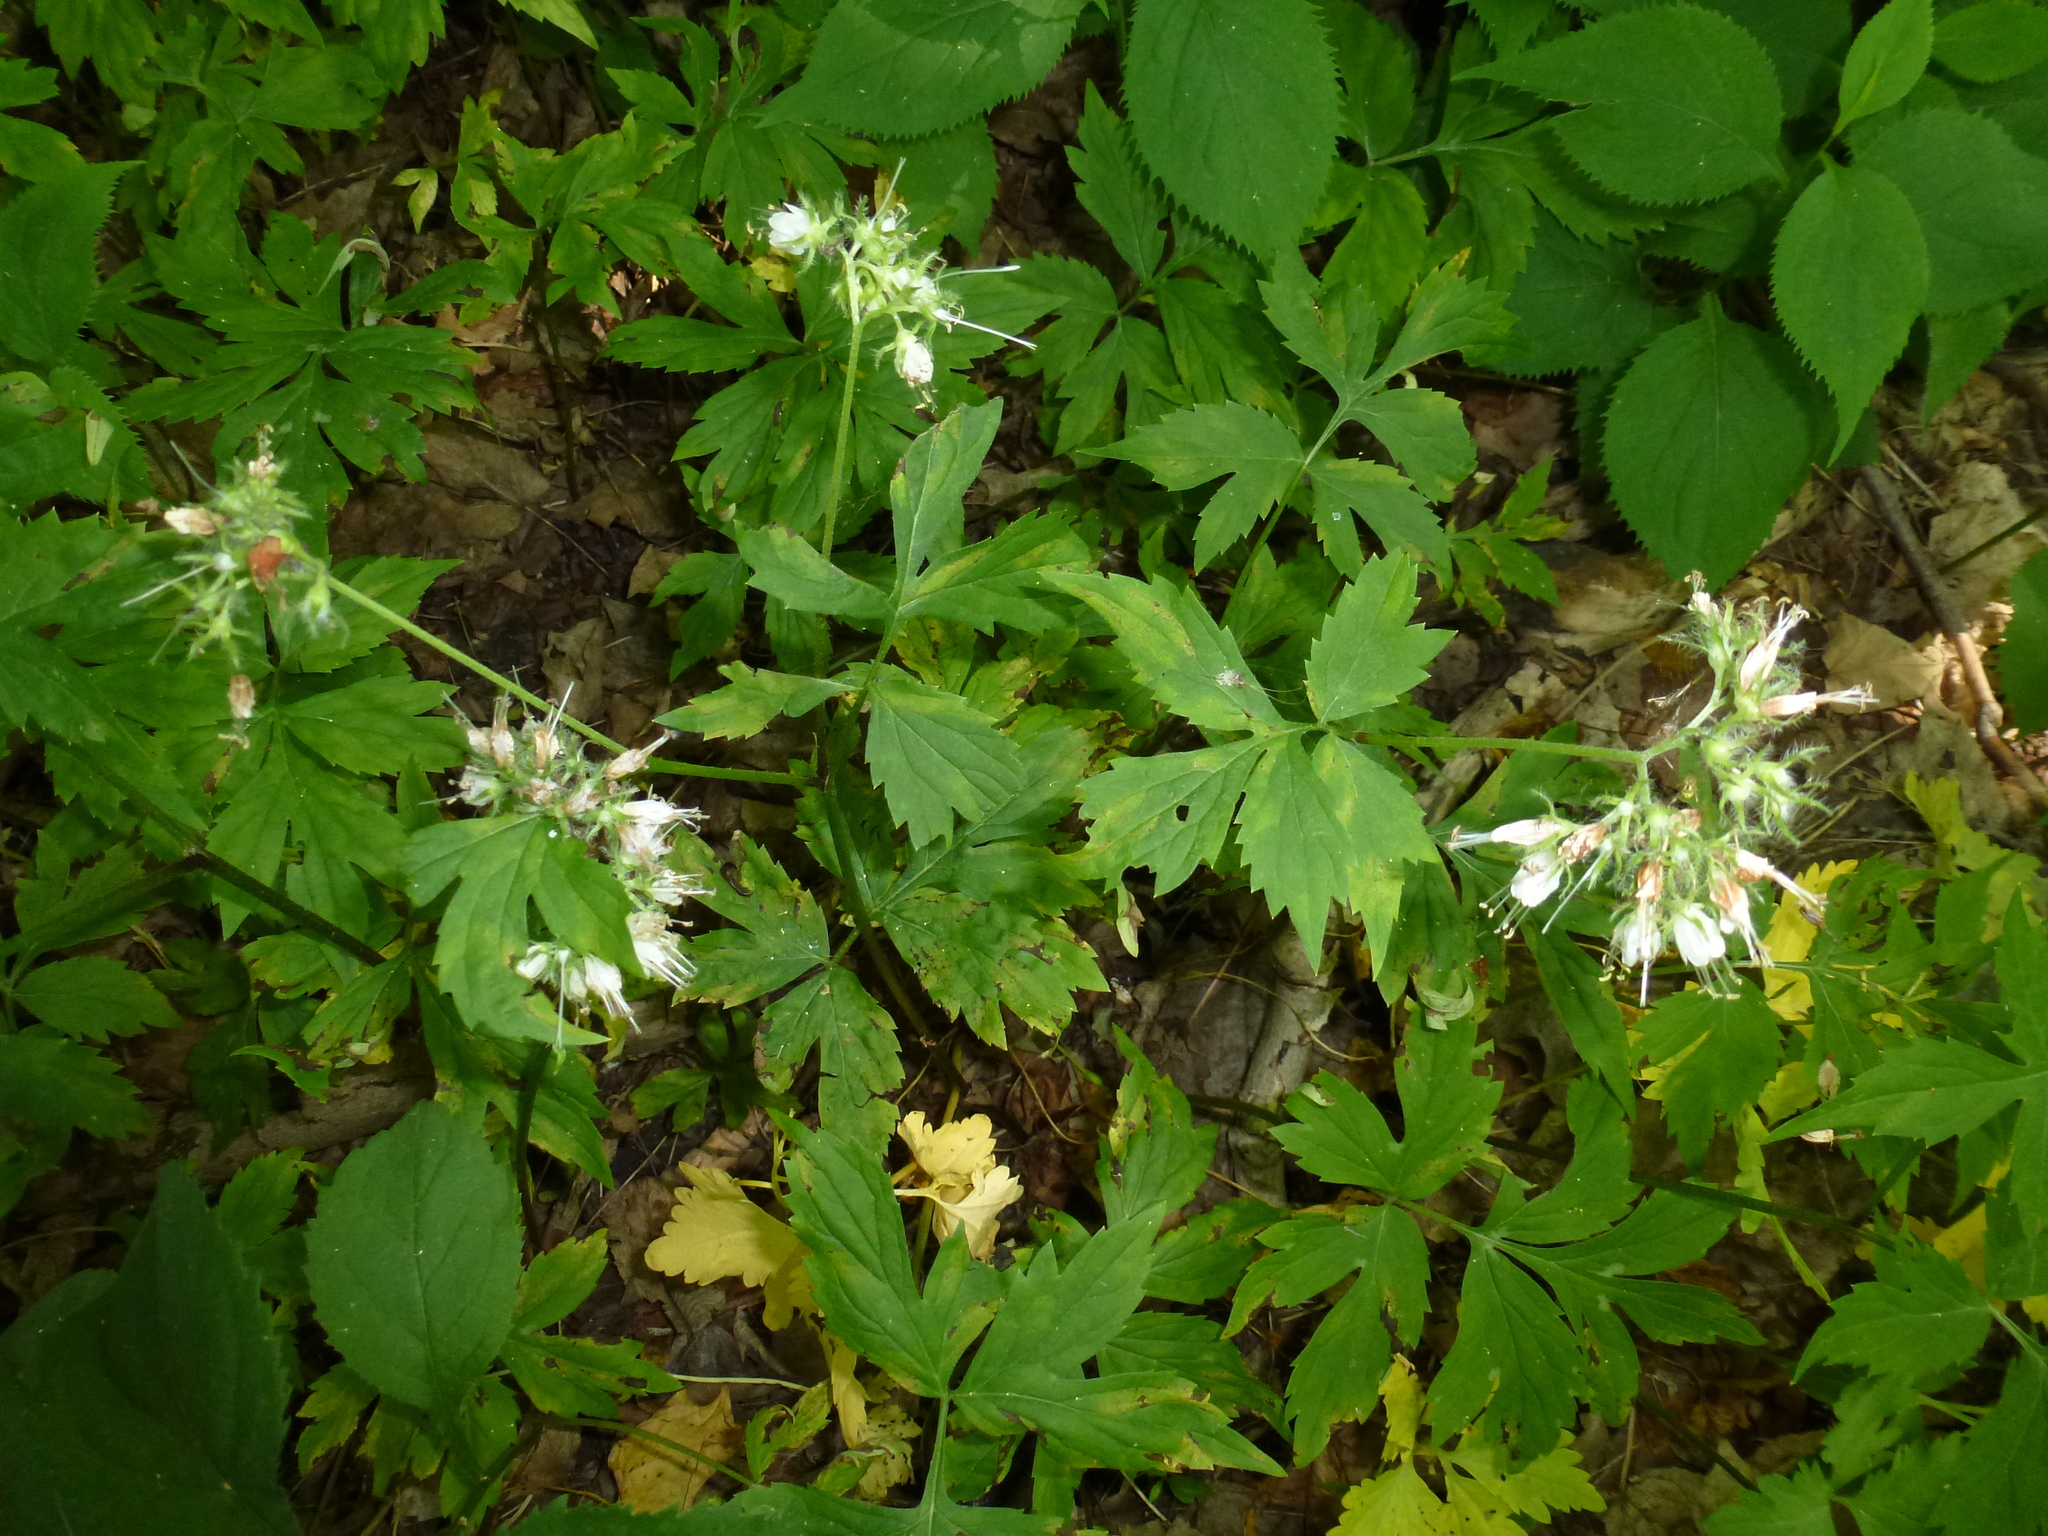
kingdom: Plantae
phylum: Tracheophyta
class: Magnoliopsida
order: Boraginales
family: Hydrophyllaceae
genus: Hydrophyllum
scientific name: Hydrophyllum virginianum
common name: Virginia waterleaf
